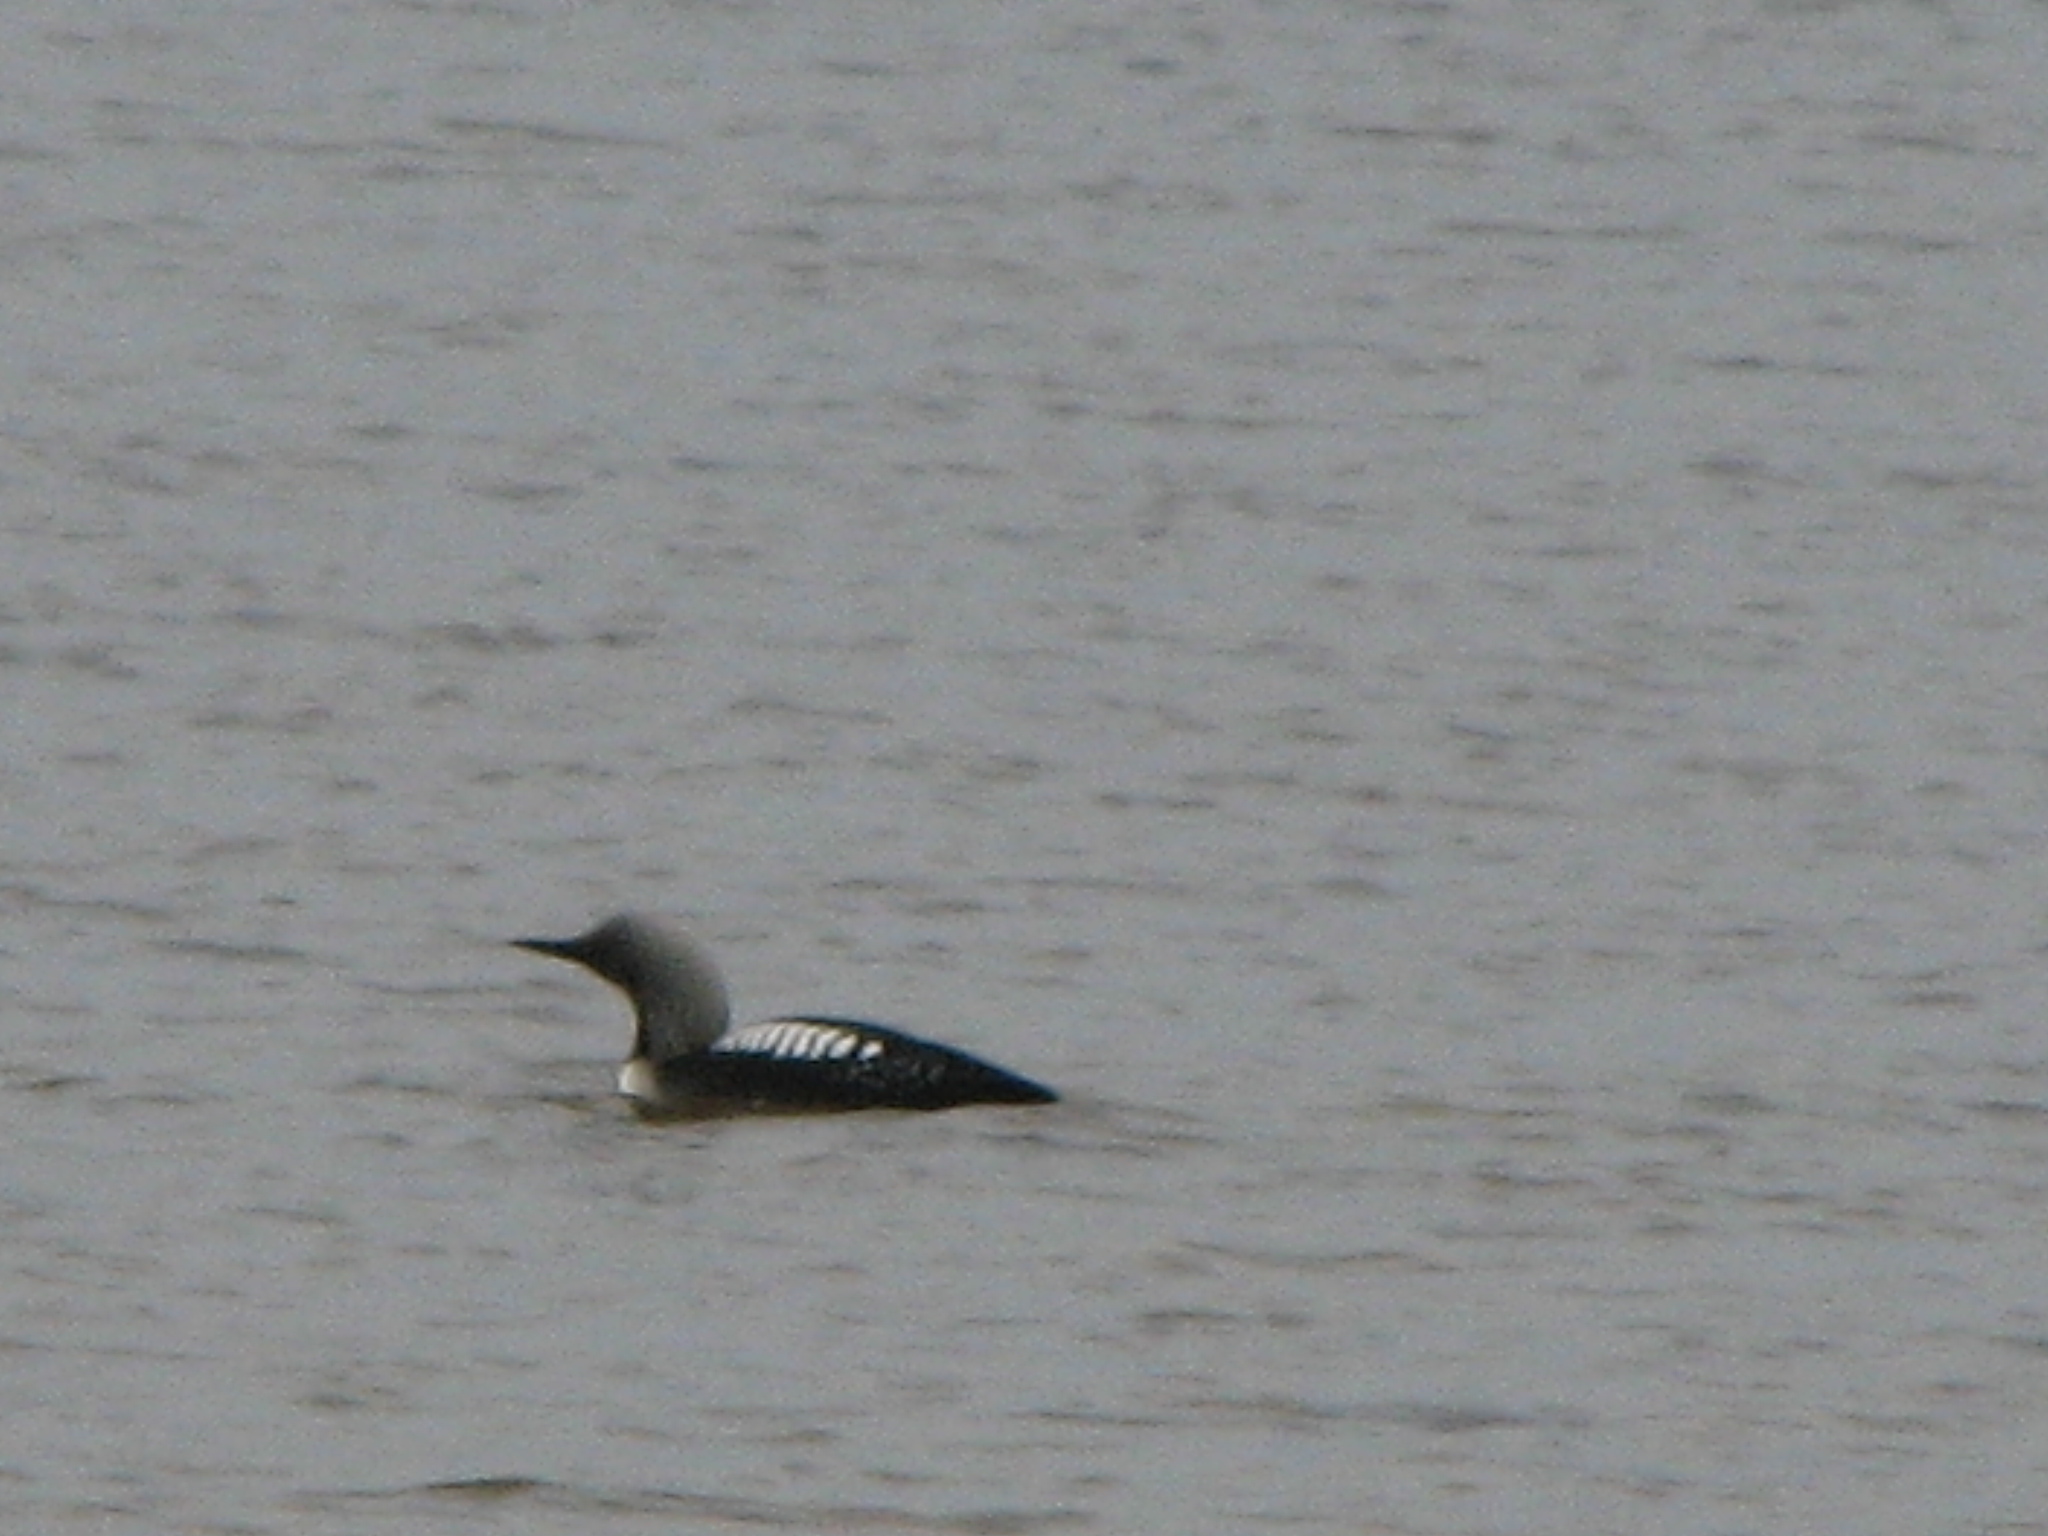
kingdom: Animalia
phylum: Chordata
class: Aves
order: Gaviiformes
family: Gaviidae
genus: Gavia
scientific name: Gavia pacifica
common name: Pacific loon
